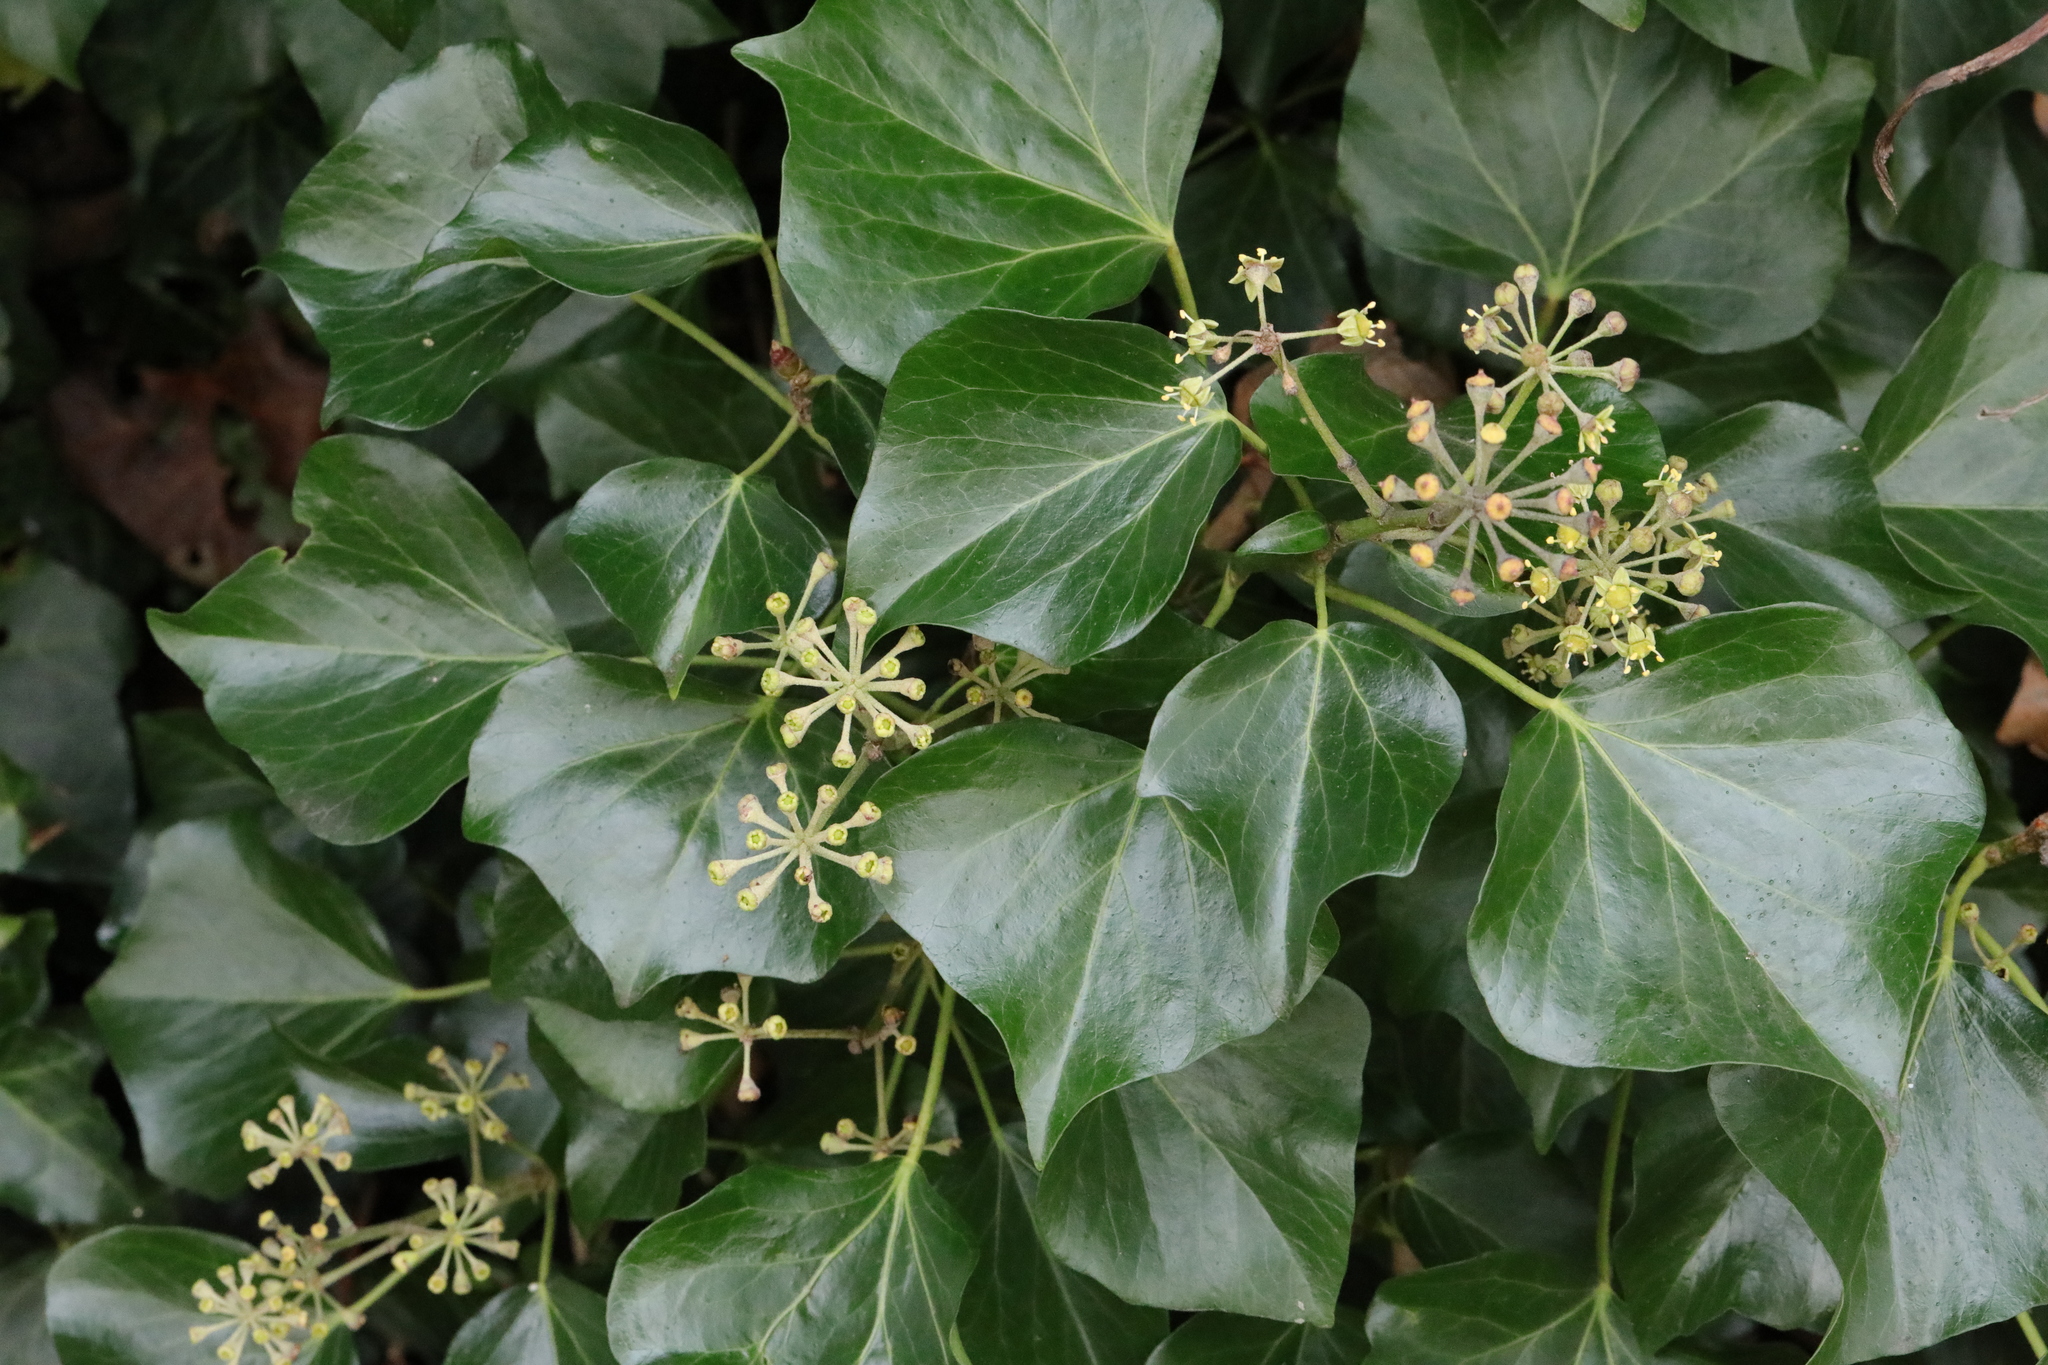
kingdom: Plantae
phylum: Tracheophyta
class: Magnoliopsida
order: Apiales
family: Araliaceae
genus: Hedera
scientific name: Hedera helix
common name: Ivy
